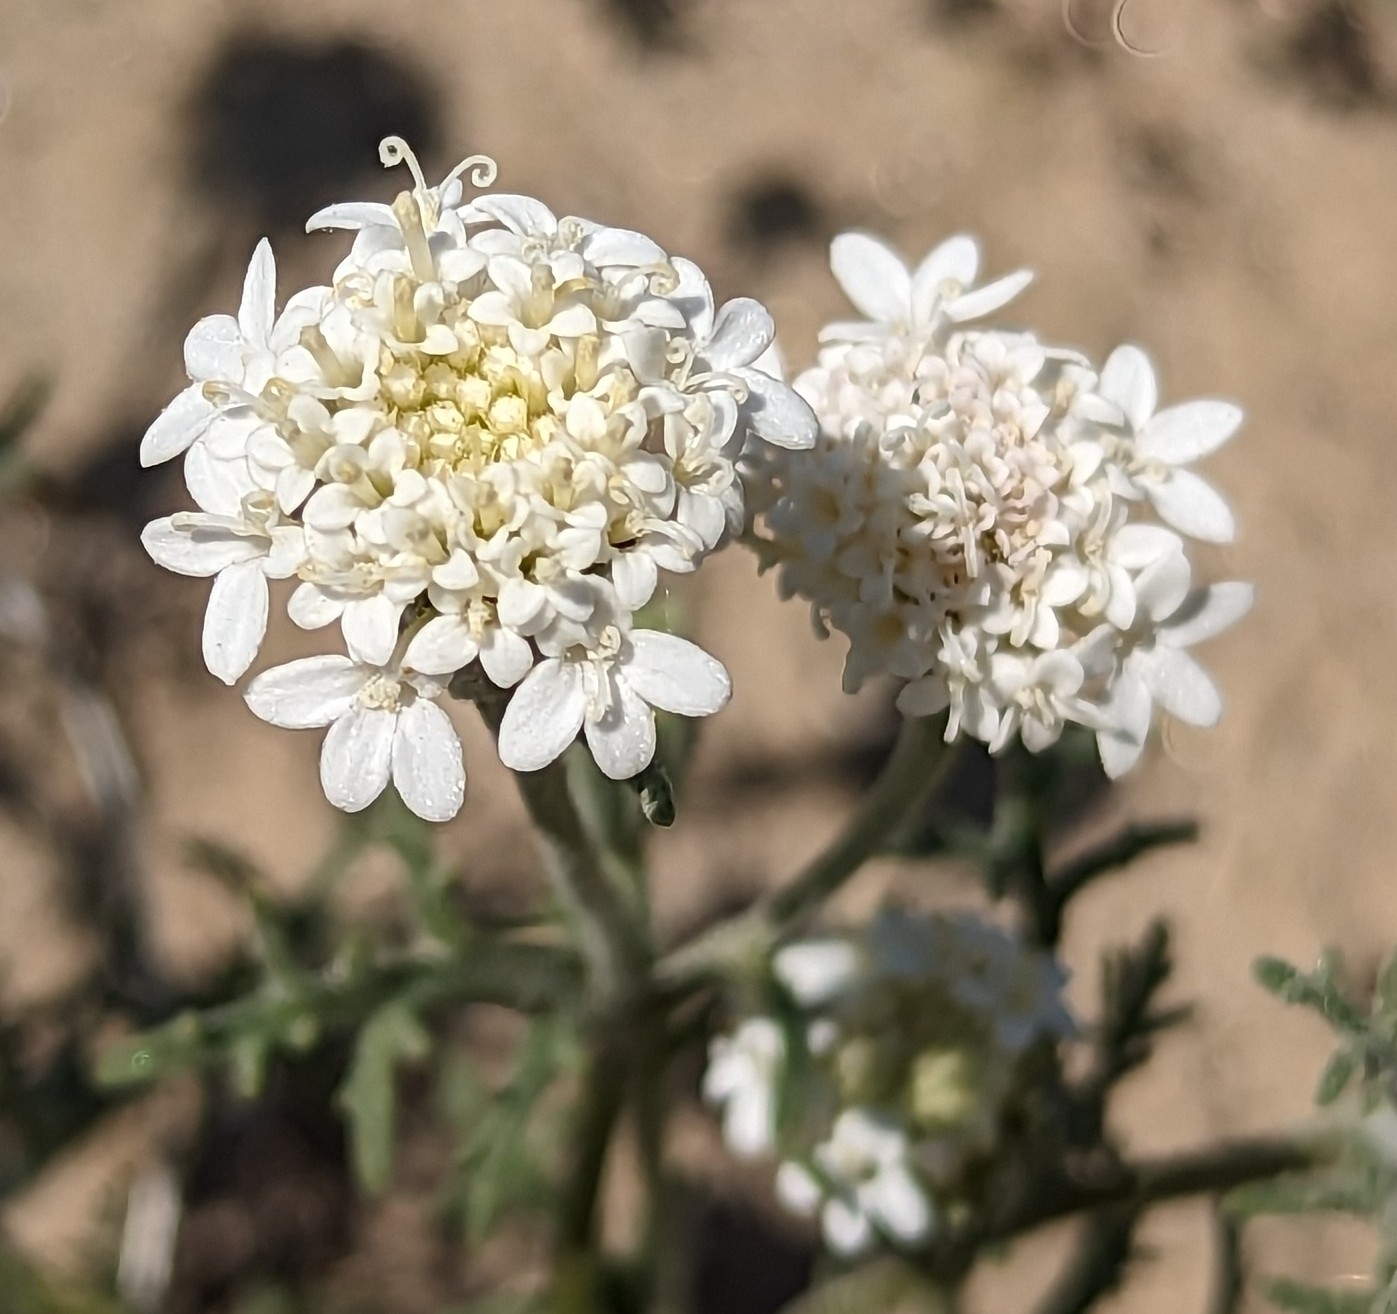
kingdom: Plantae
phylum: Tracheophyta
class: Magnoliopsida
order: Asterales
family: Asteraceae
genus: Chaenactis
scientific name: Chaenactis stevioides
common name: Desert pincushion
